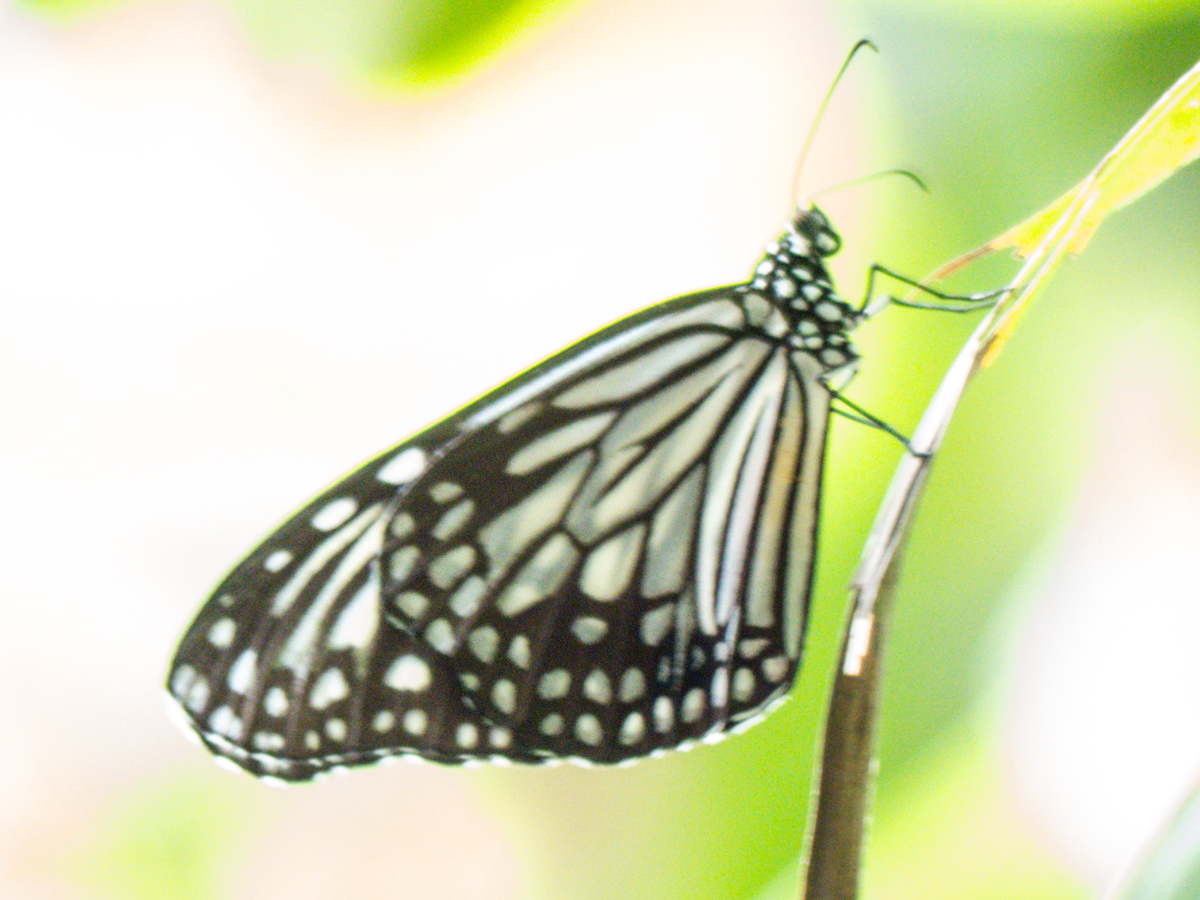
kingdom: Animalia
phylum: Arthropoda
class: Insecta
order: Lepidoptera
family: Nymphalidae
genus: Parantica
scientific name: Parantica aglea
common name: Glassy tiger
